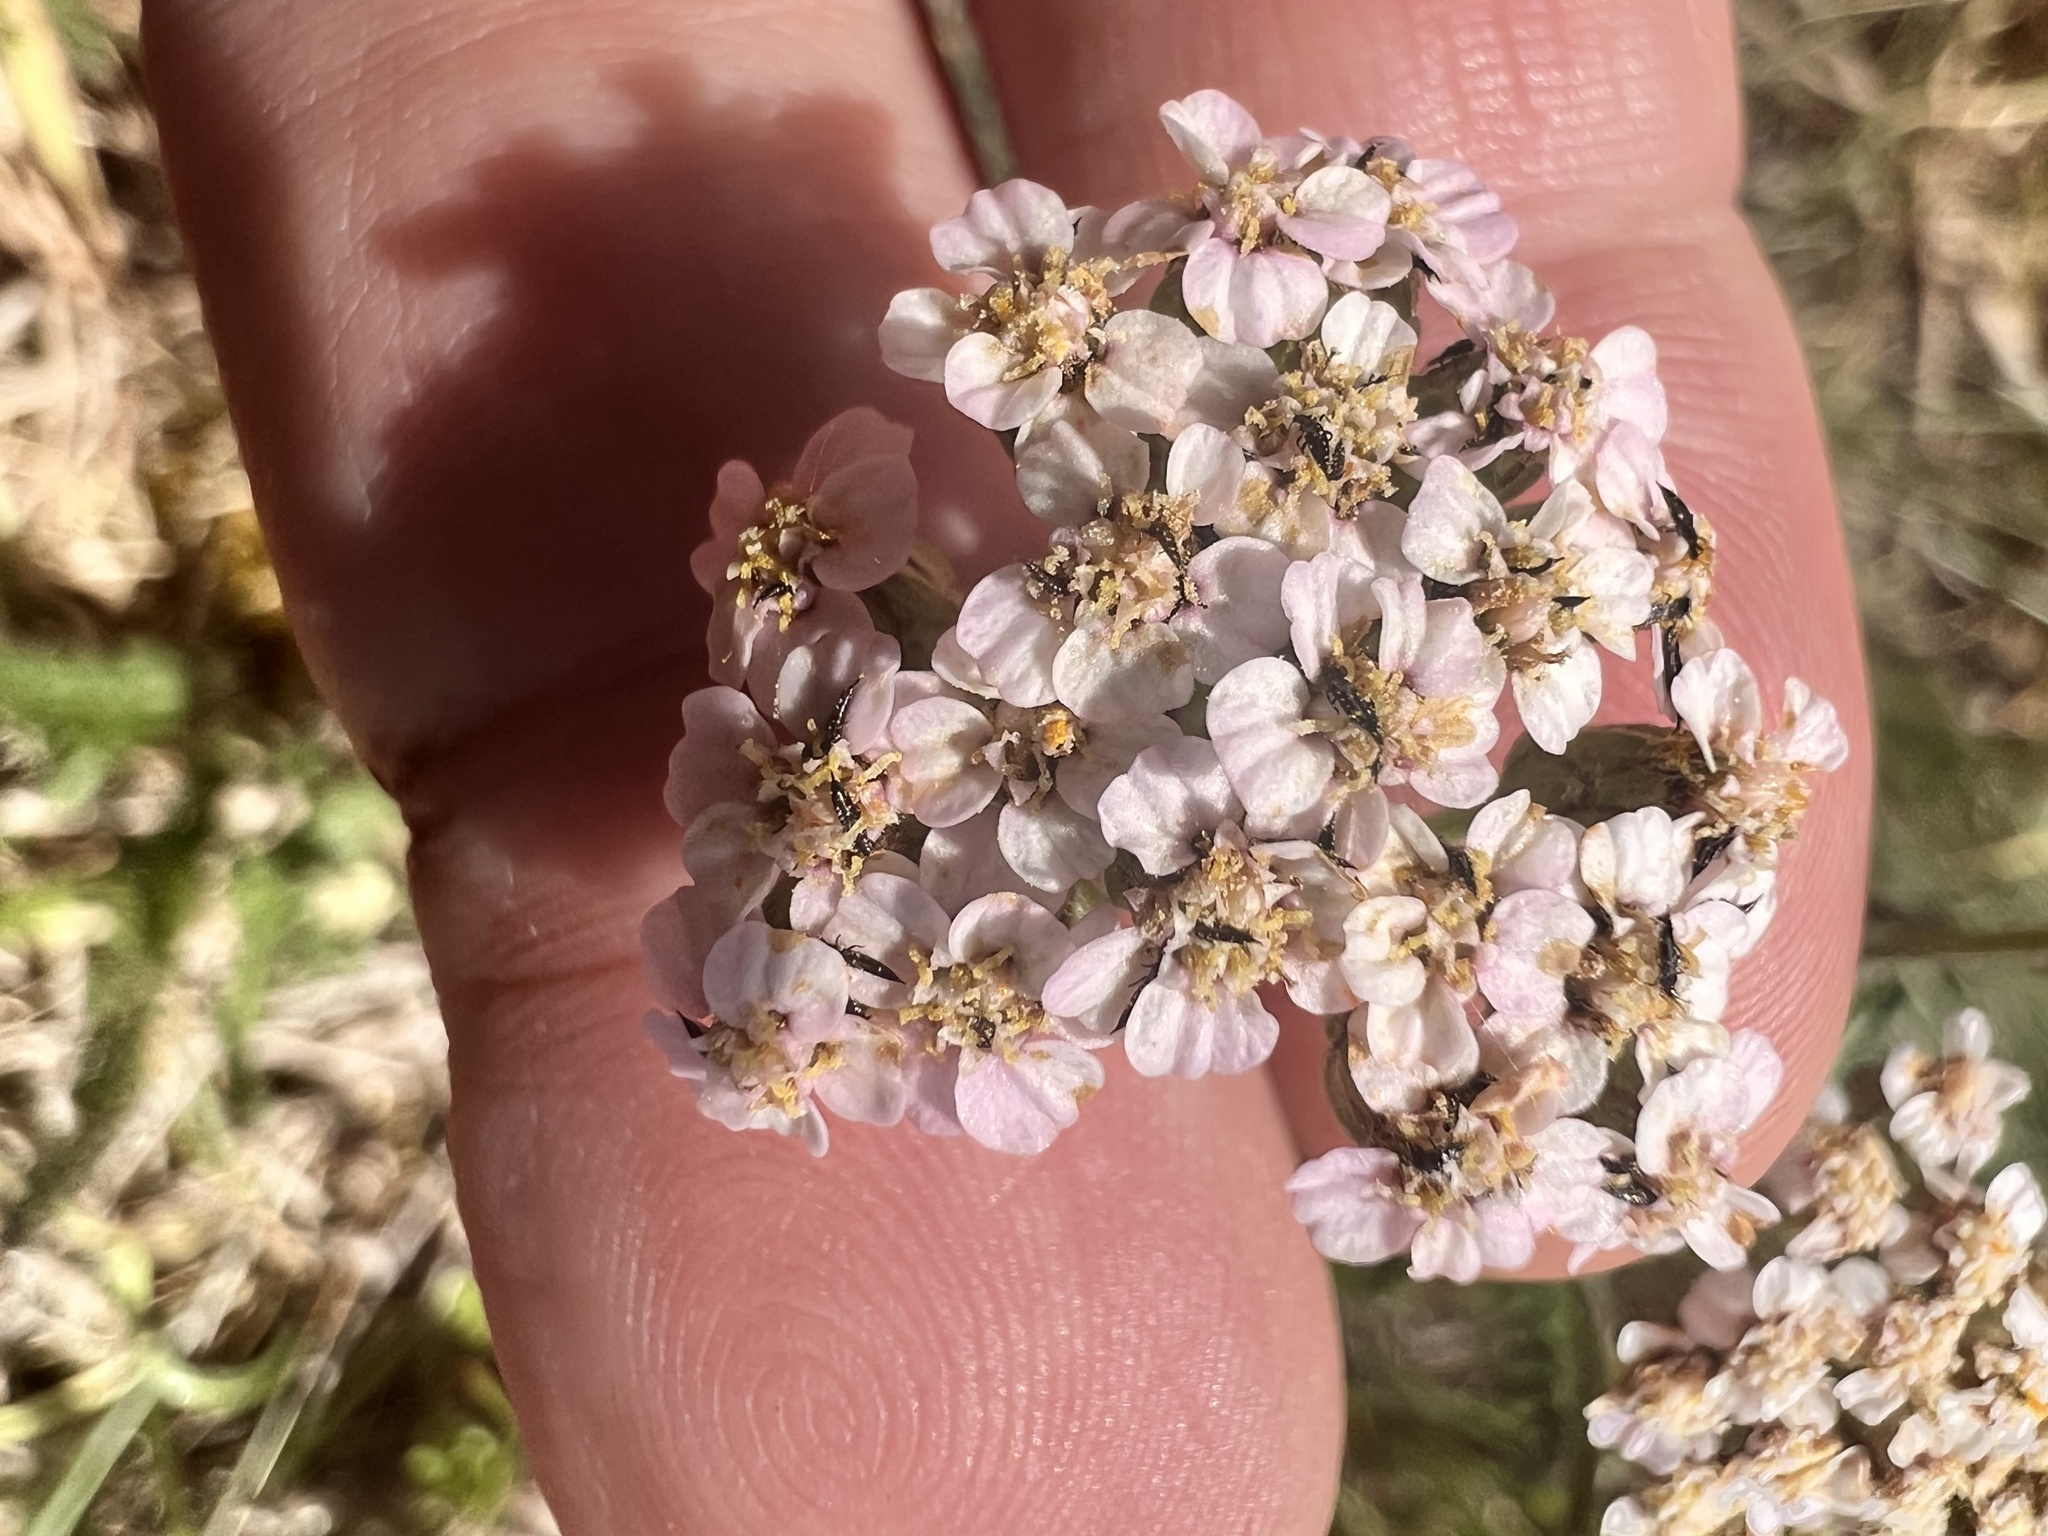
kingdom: Plantae
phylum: Tracheophyta
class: Magnoliopsida
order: Asterales
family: Asteraceae
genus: Achillea
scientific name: Achillea millefolium
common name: Yarrow
